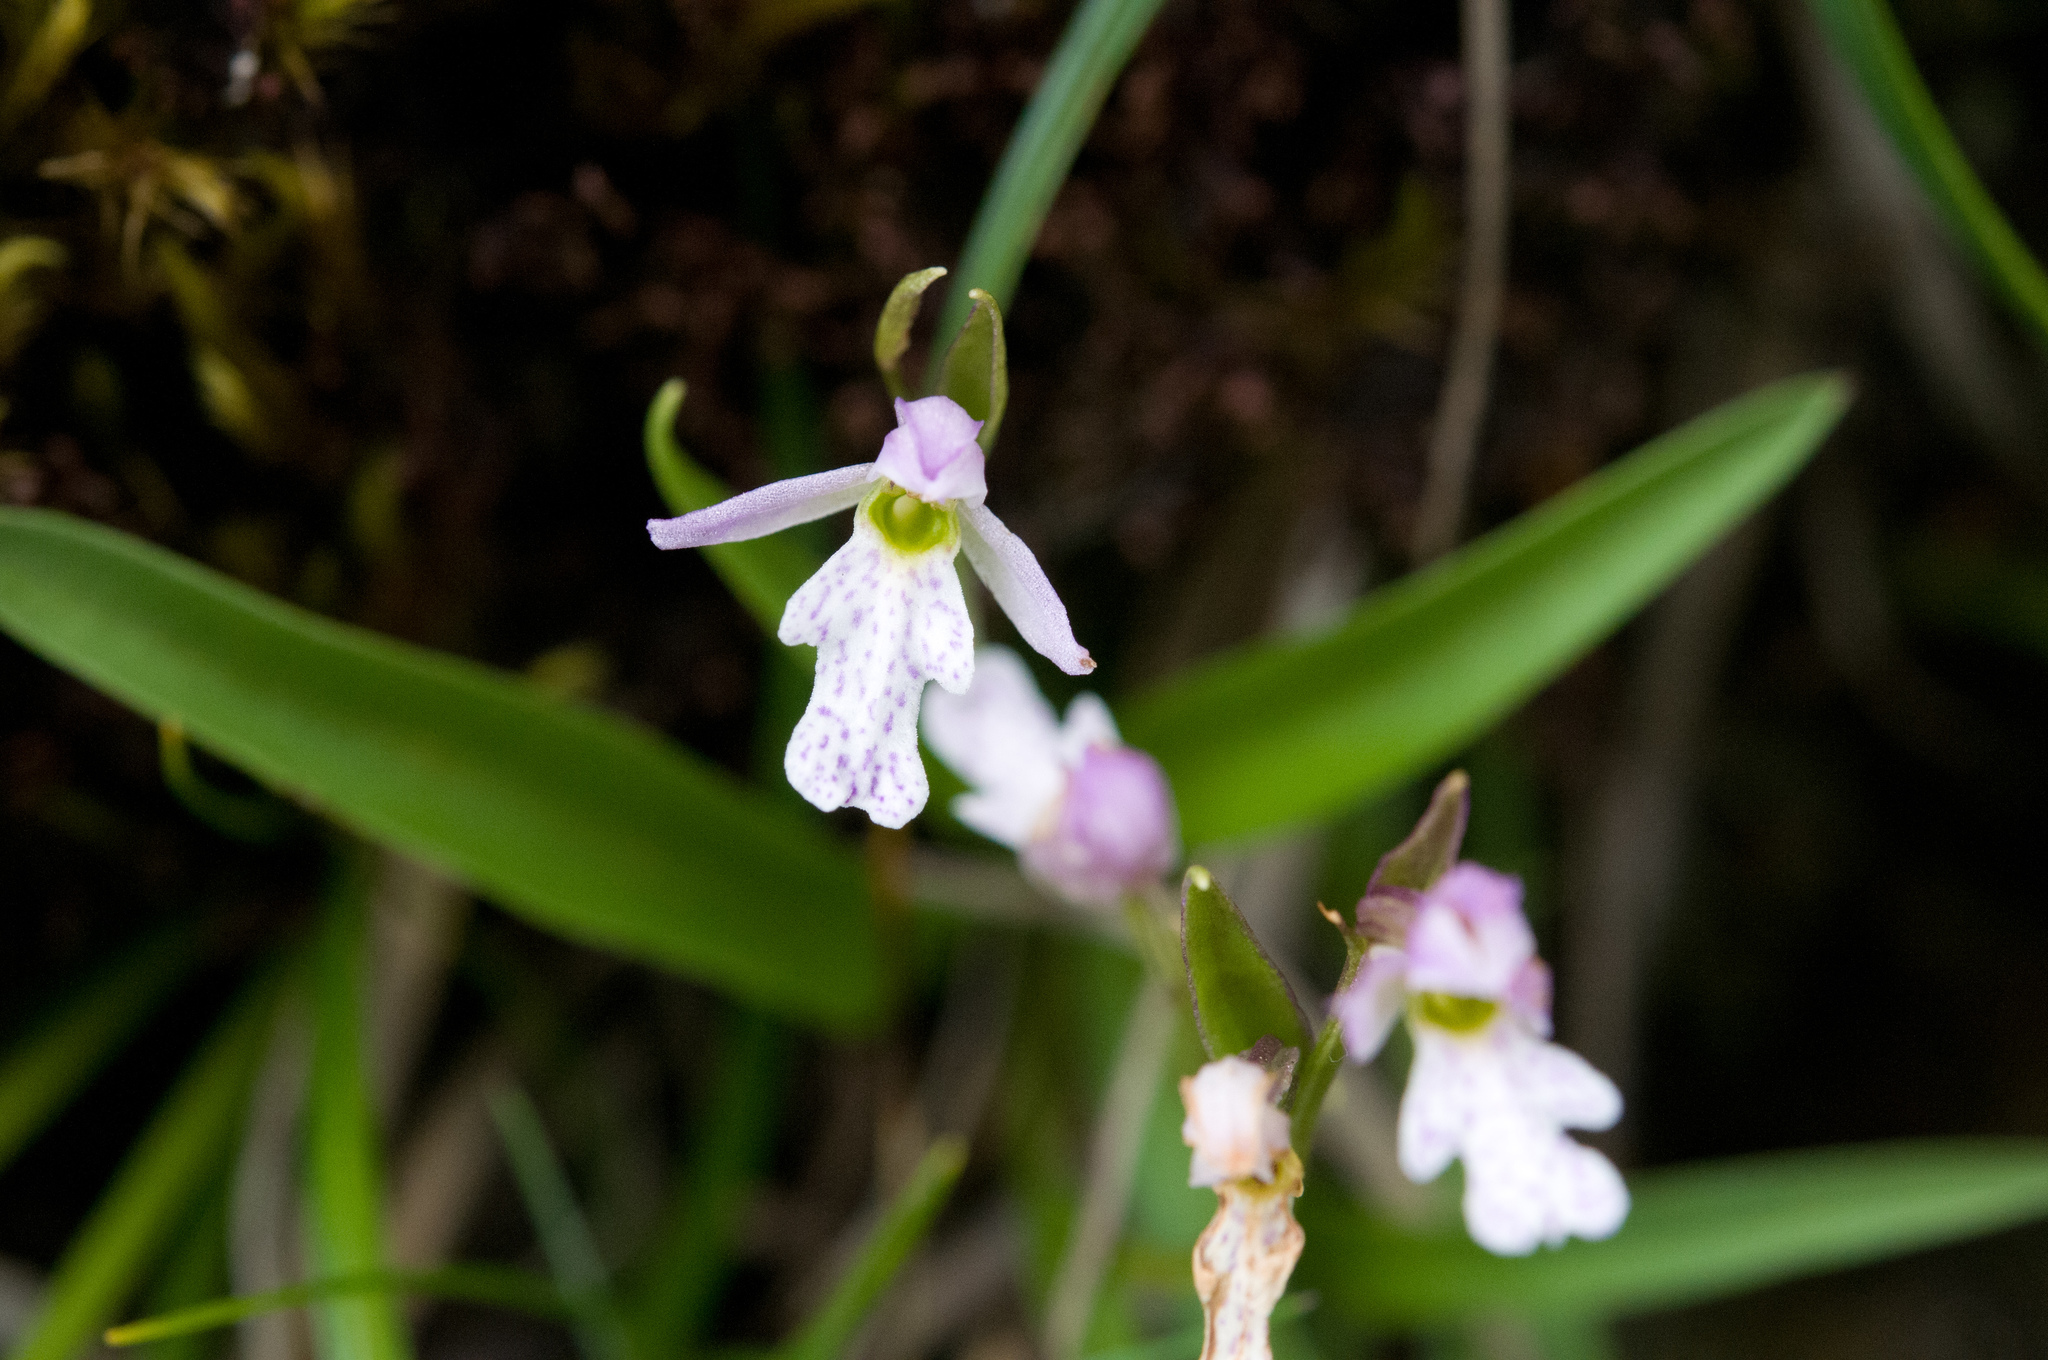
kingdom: Plantae
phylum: Tracheophyta
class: Liliopsida
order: Asparagales
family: Orchidaceae
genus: Hemipilia
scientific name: Hemipilia alpestris
